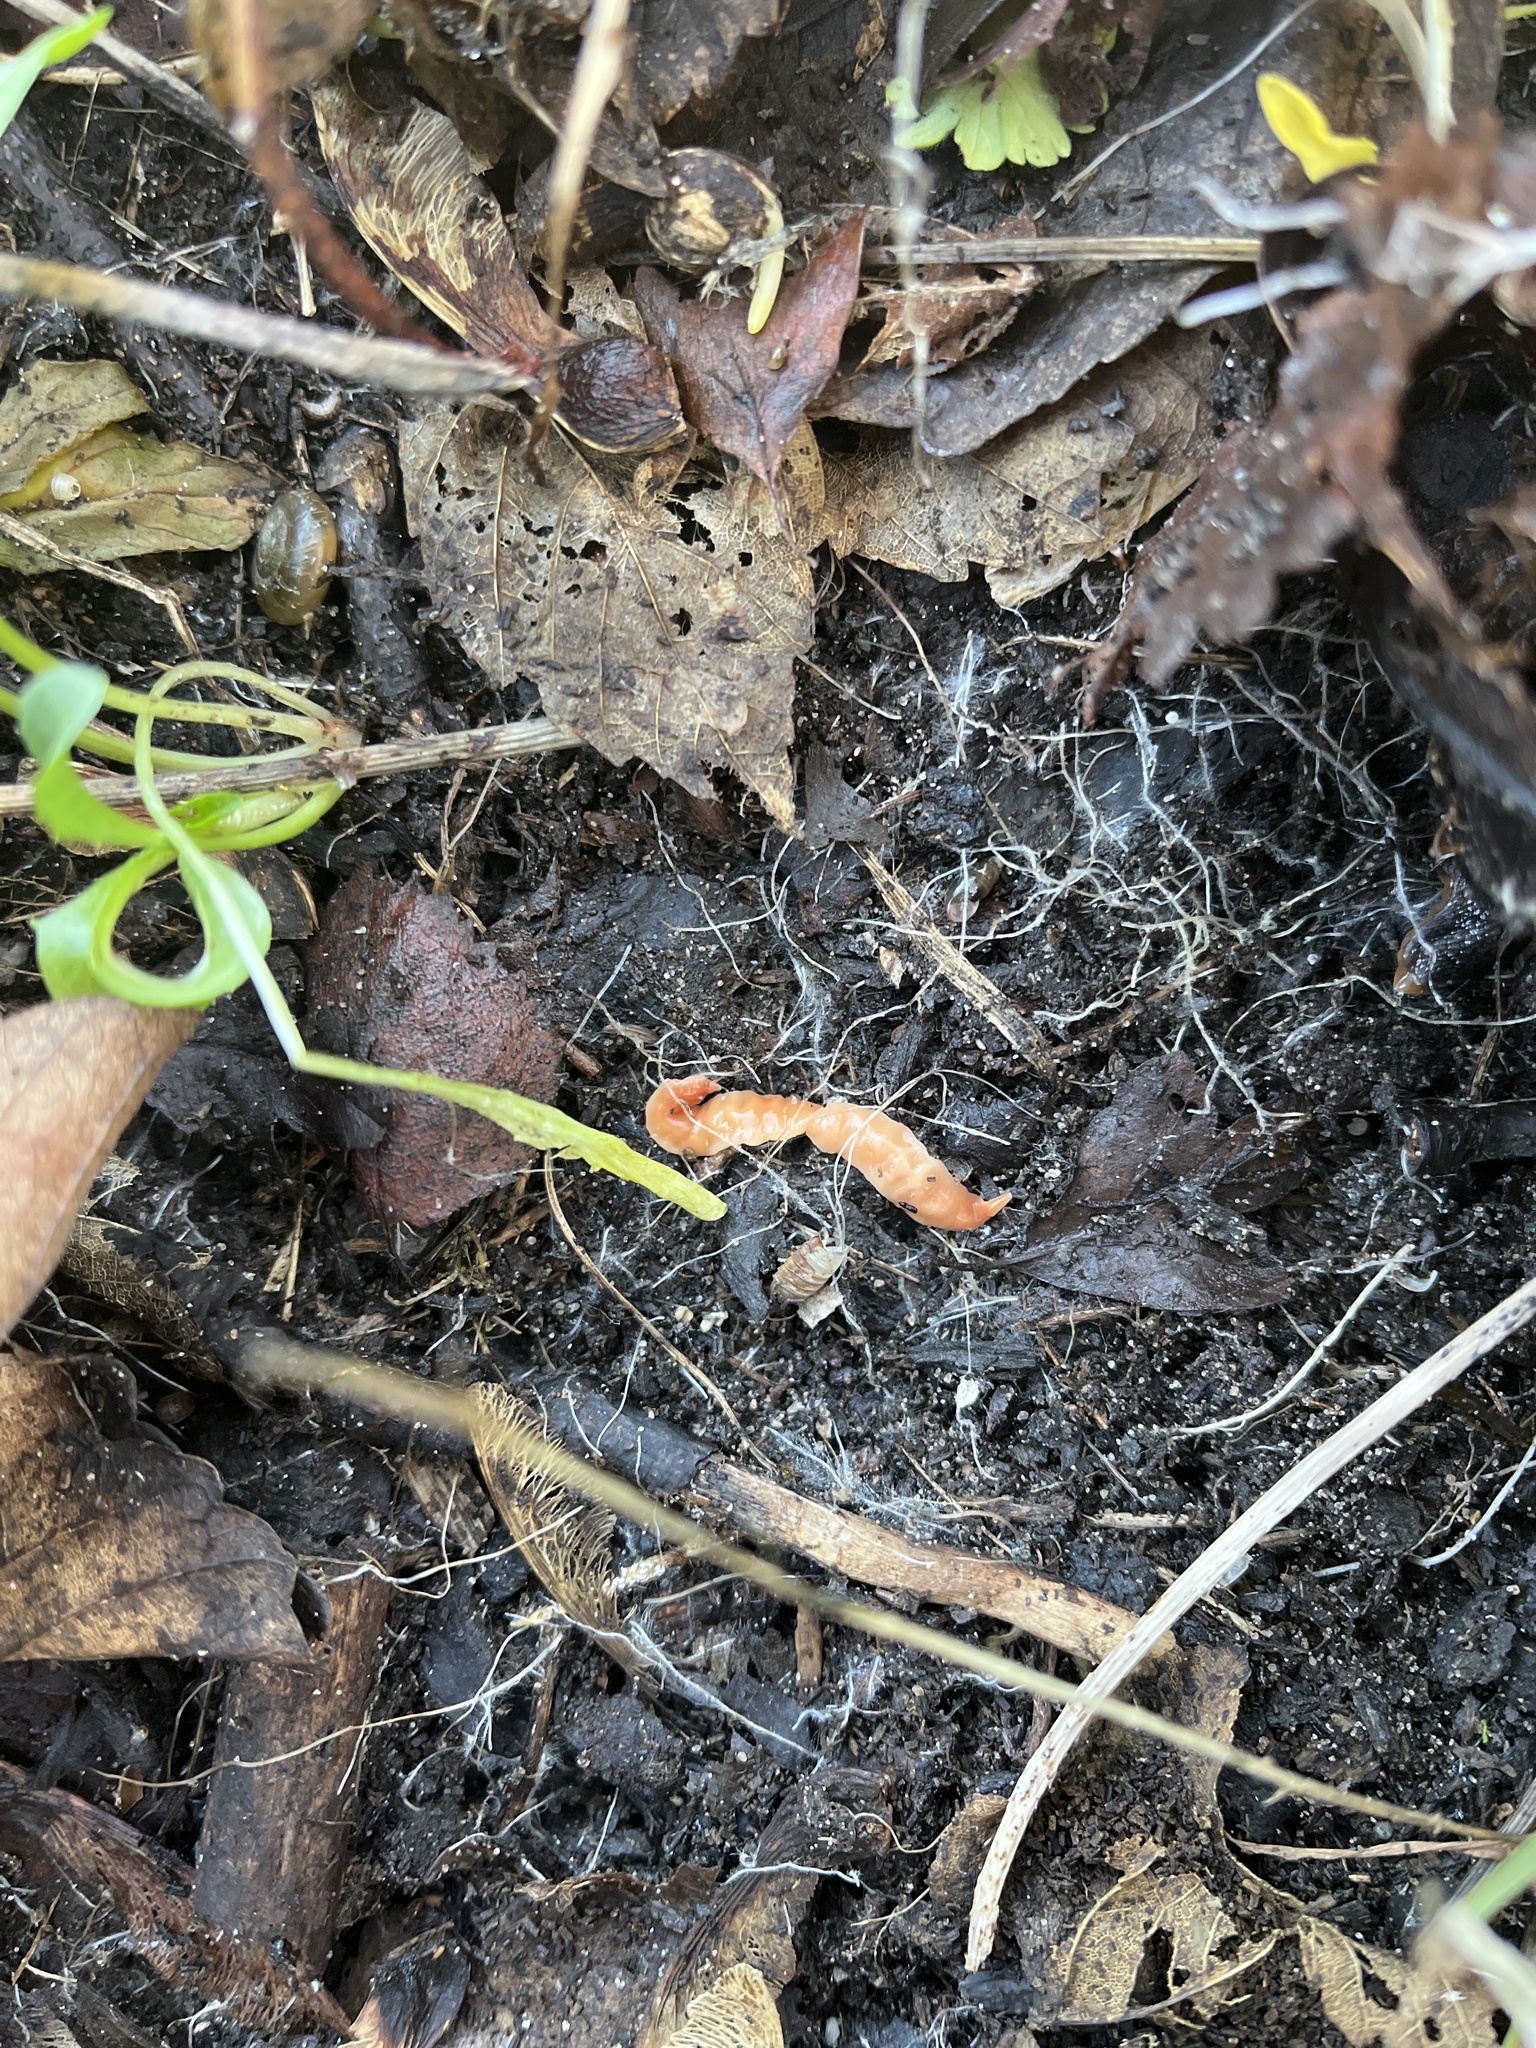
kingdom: Animalia
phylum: Platyhelminthes
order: Tricladida
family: Geoplanidae
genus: Australoplana
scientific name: Australoplana sanguinea
